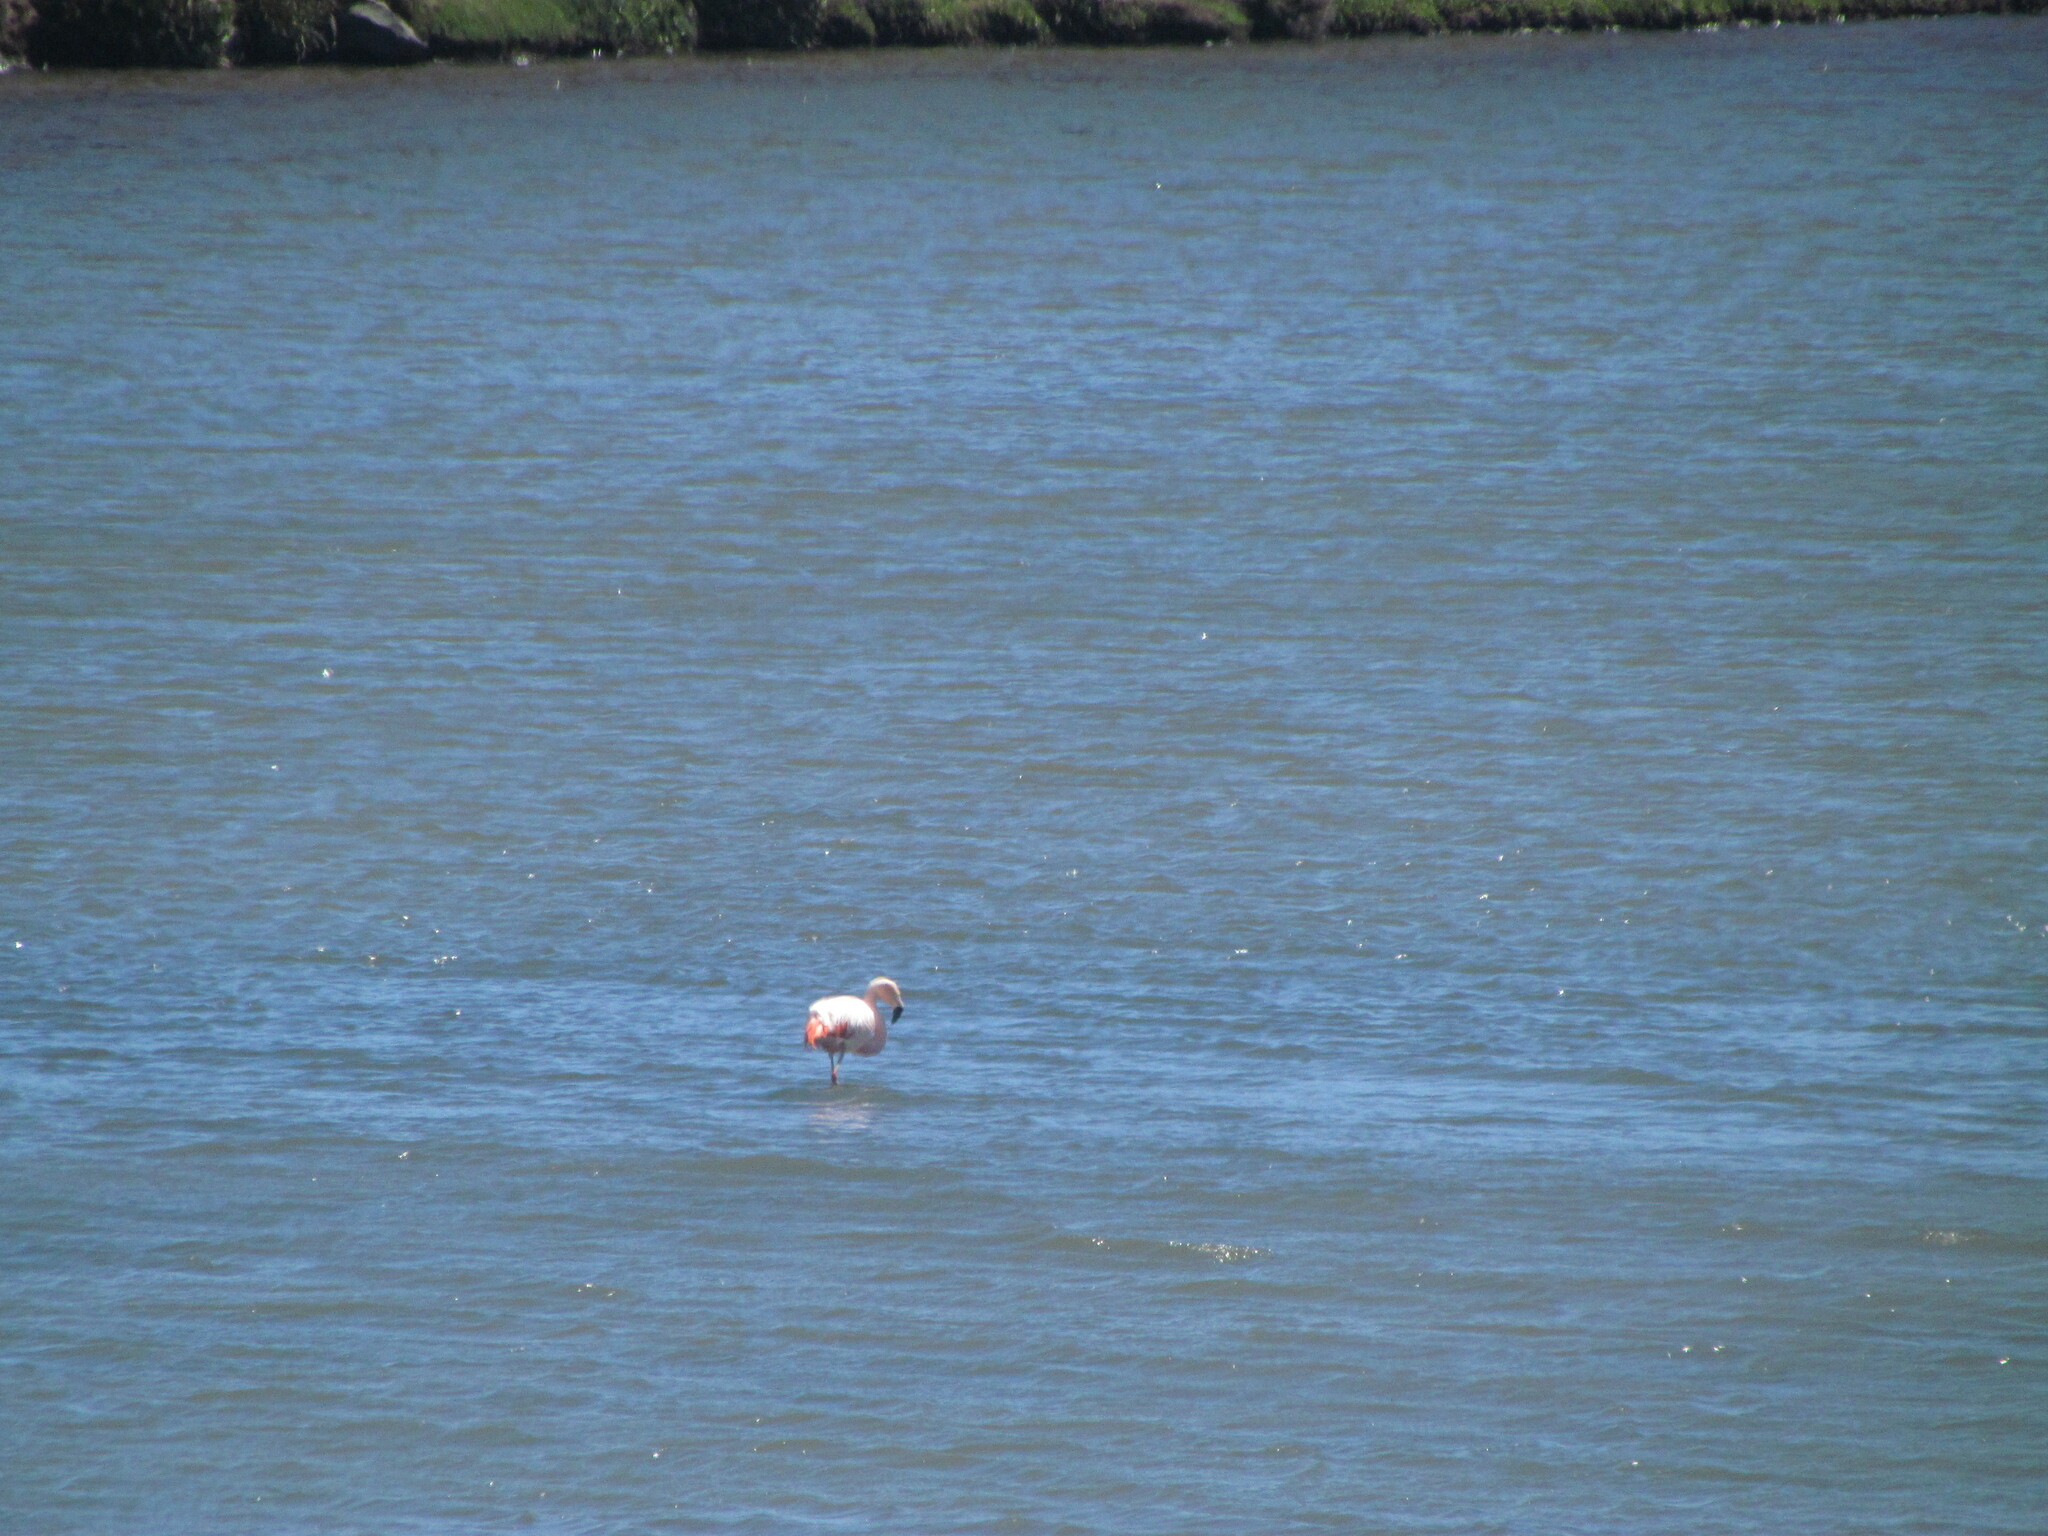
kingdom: Animalia
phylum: Chordata
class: Aves
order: Phoenicopteriformes
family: Phoenicopteridae
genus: Phoenicopterus
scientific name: Phoenicopterus chilensis
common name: Chilean flamingo
